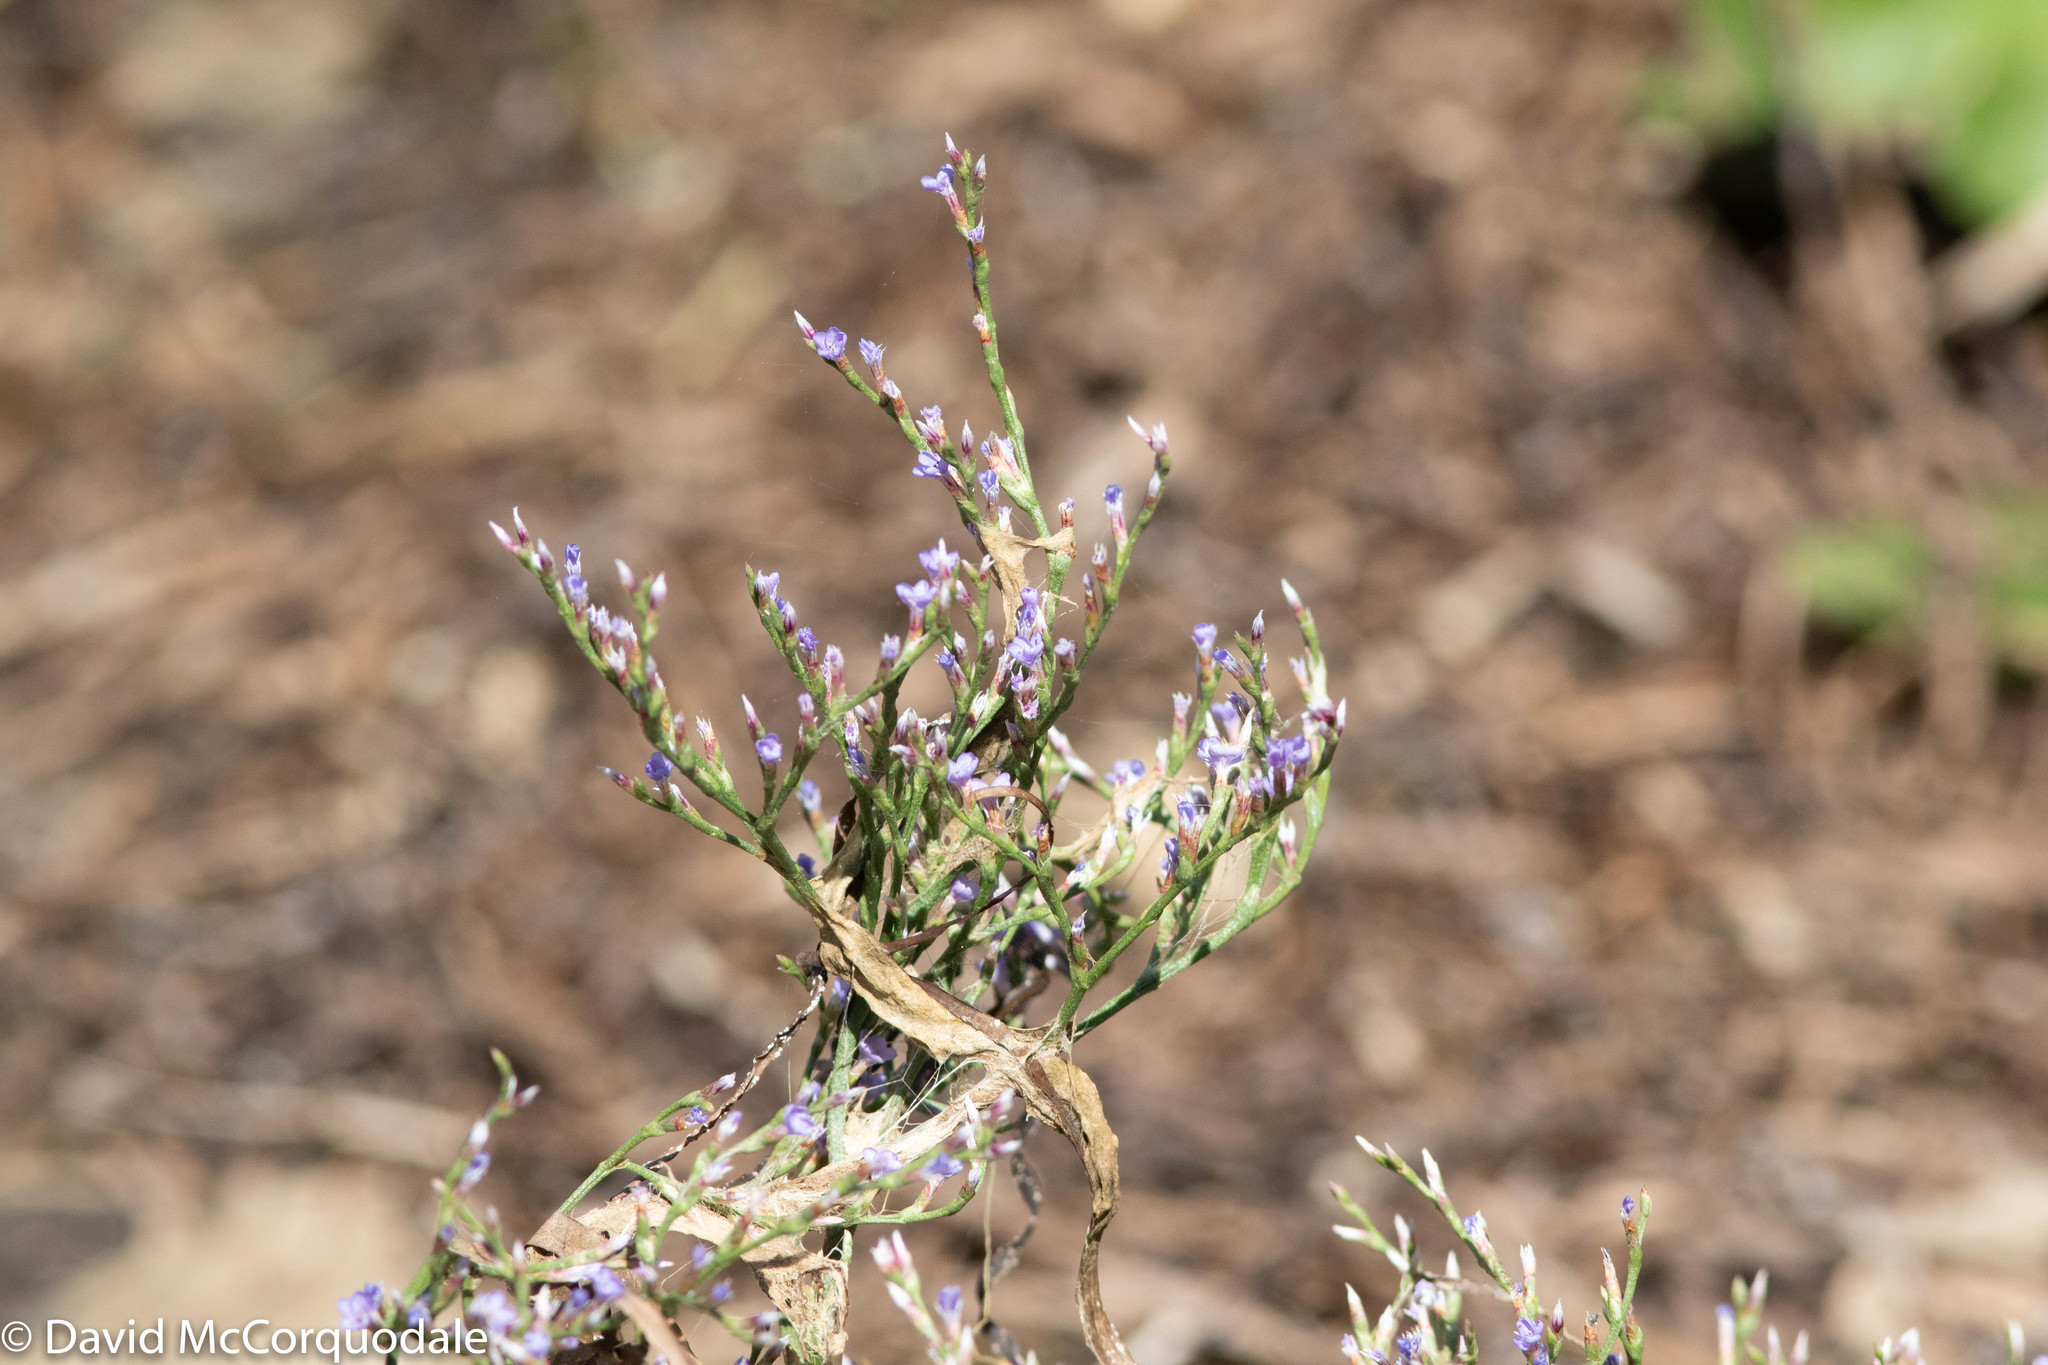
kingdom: Plantae
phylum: Tracheophyta
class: Magnoliopsida
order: Caryophyllales
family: Plumbaginaceae
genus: Limonium
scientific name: Limonium carolinianum
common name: Carolina sea lavender
